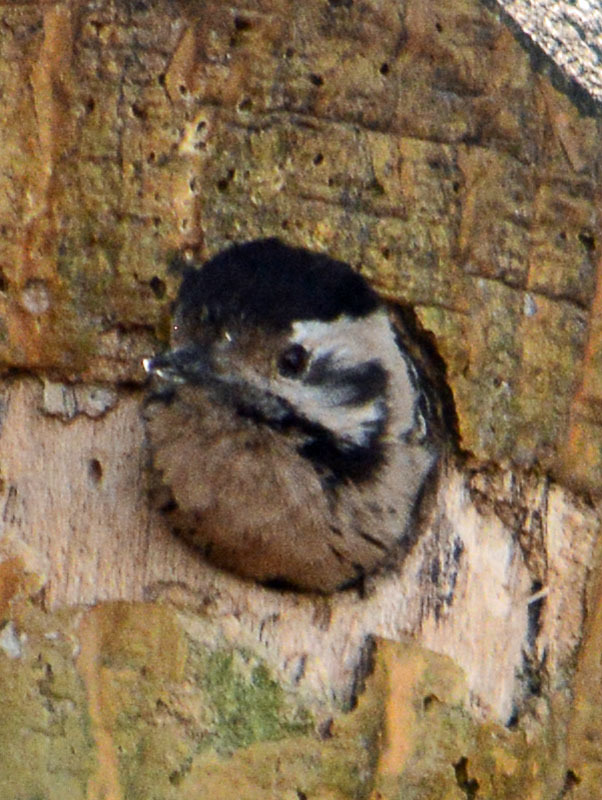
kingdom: Animalia
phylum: Chordata
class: Aves
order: Piciformes
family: Picidae
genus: Dryobates
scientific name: Dryobates scalaris
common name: Ladder-backed woodpecker
